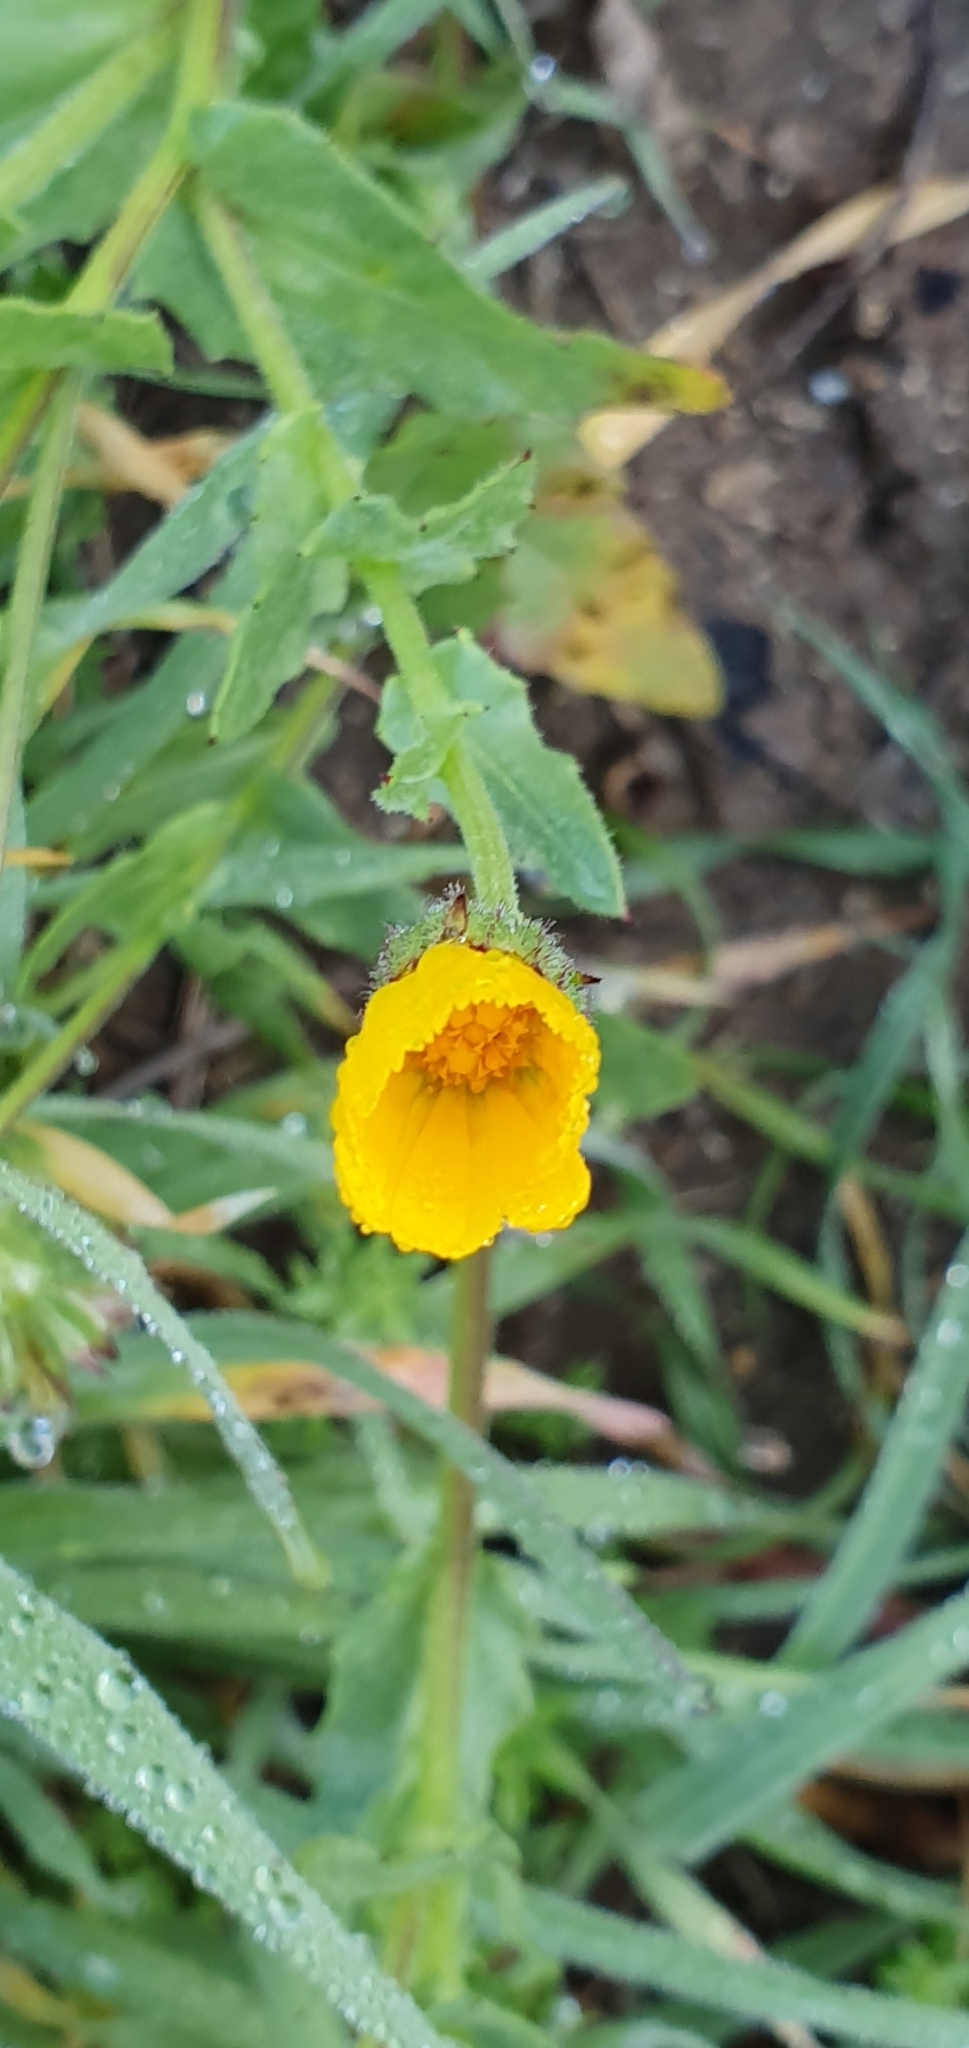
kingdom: Plantae
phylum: Tracheophyta
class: Magnoliopsida
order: Asterales
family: Asteraceae
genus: Calendula
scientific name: Calendula arvensis
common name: Field marigold
